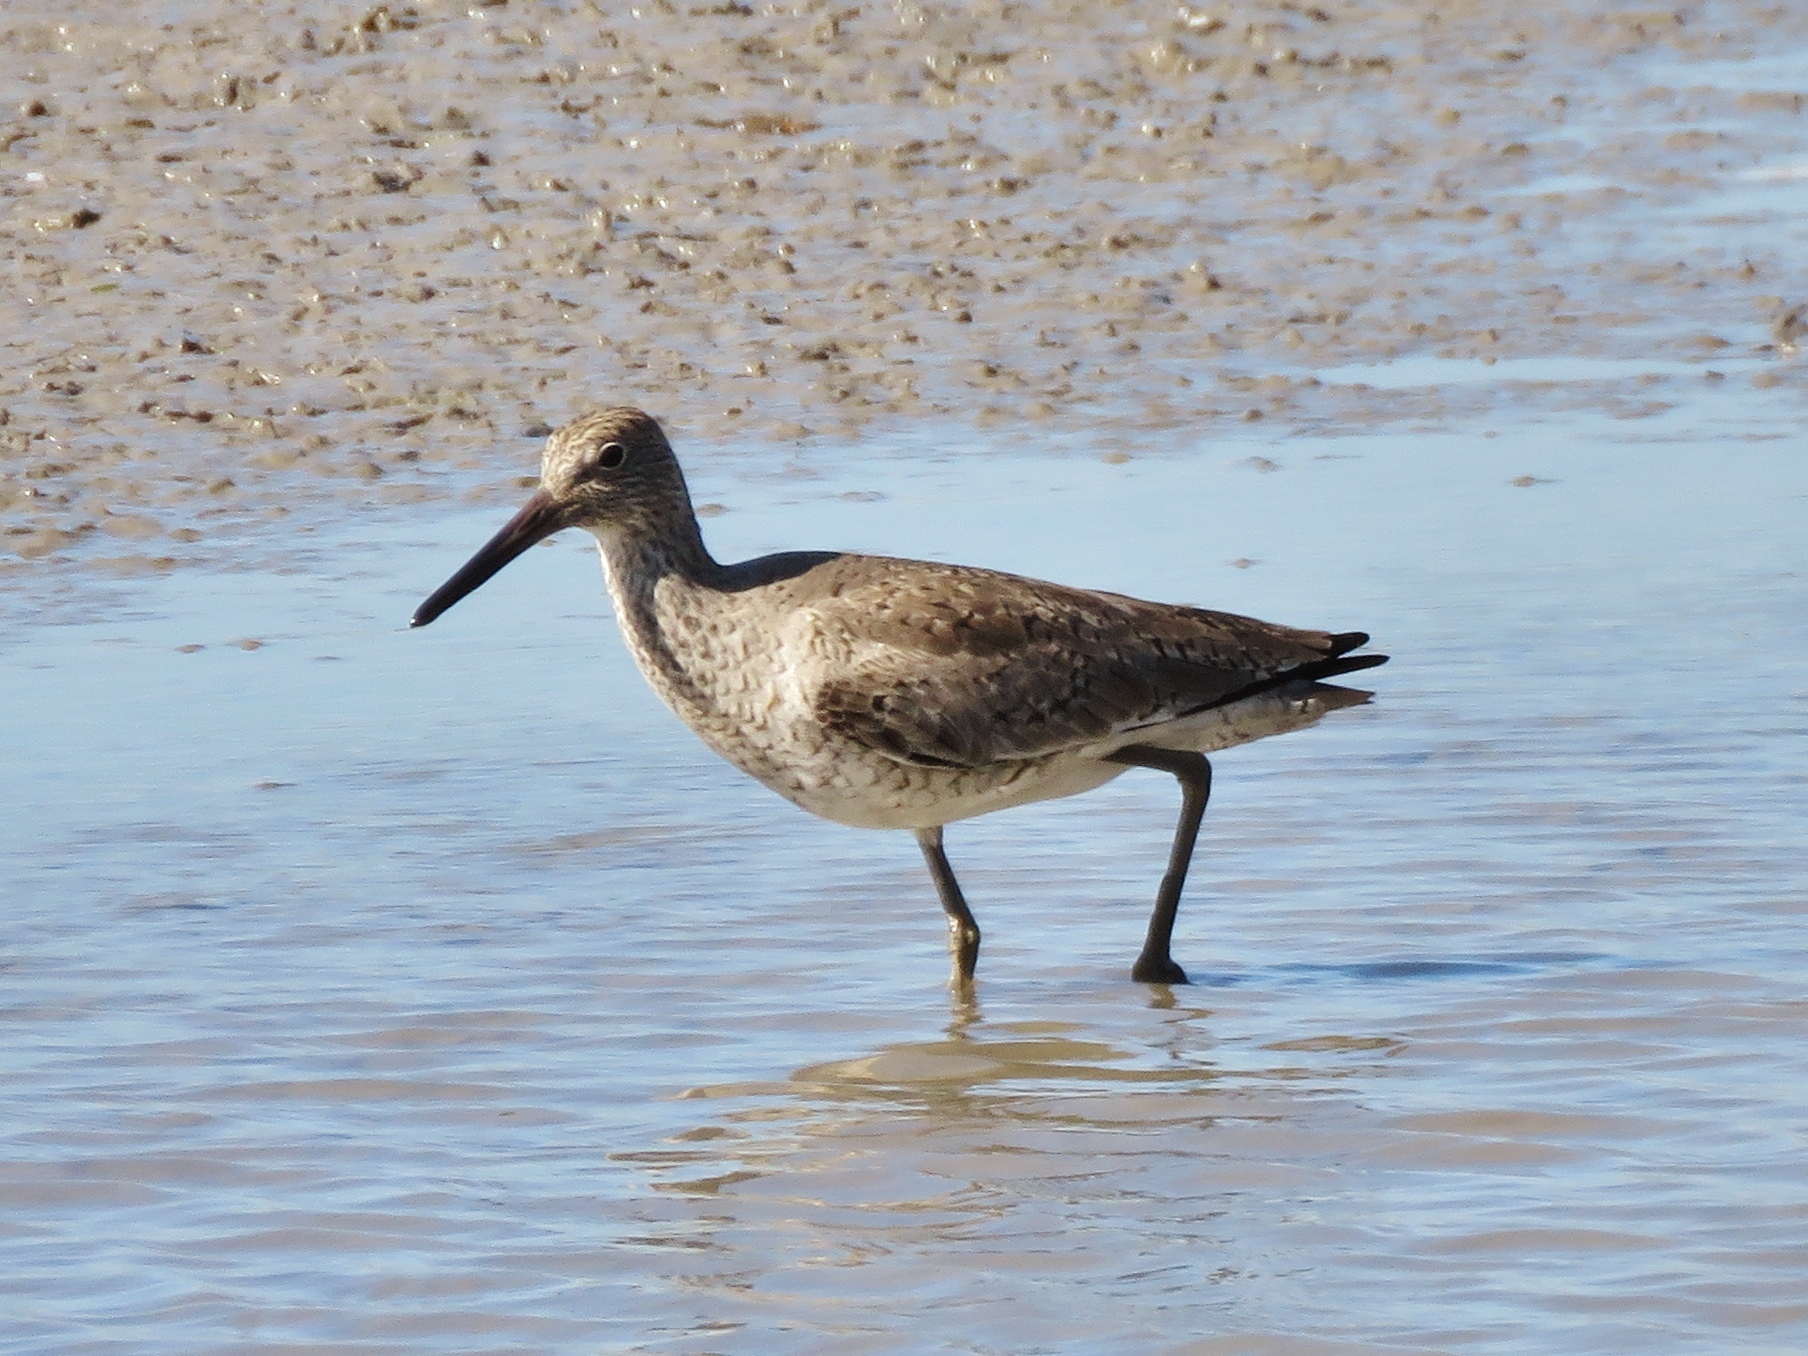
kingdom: Animalia
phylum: Chordata
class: Aves
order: Charadriiformes
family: Scolopacidae
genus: Tringa
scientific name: Tringa semipalmata
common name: Willet
